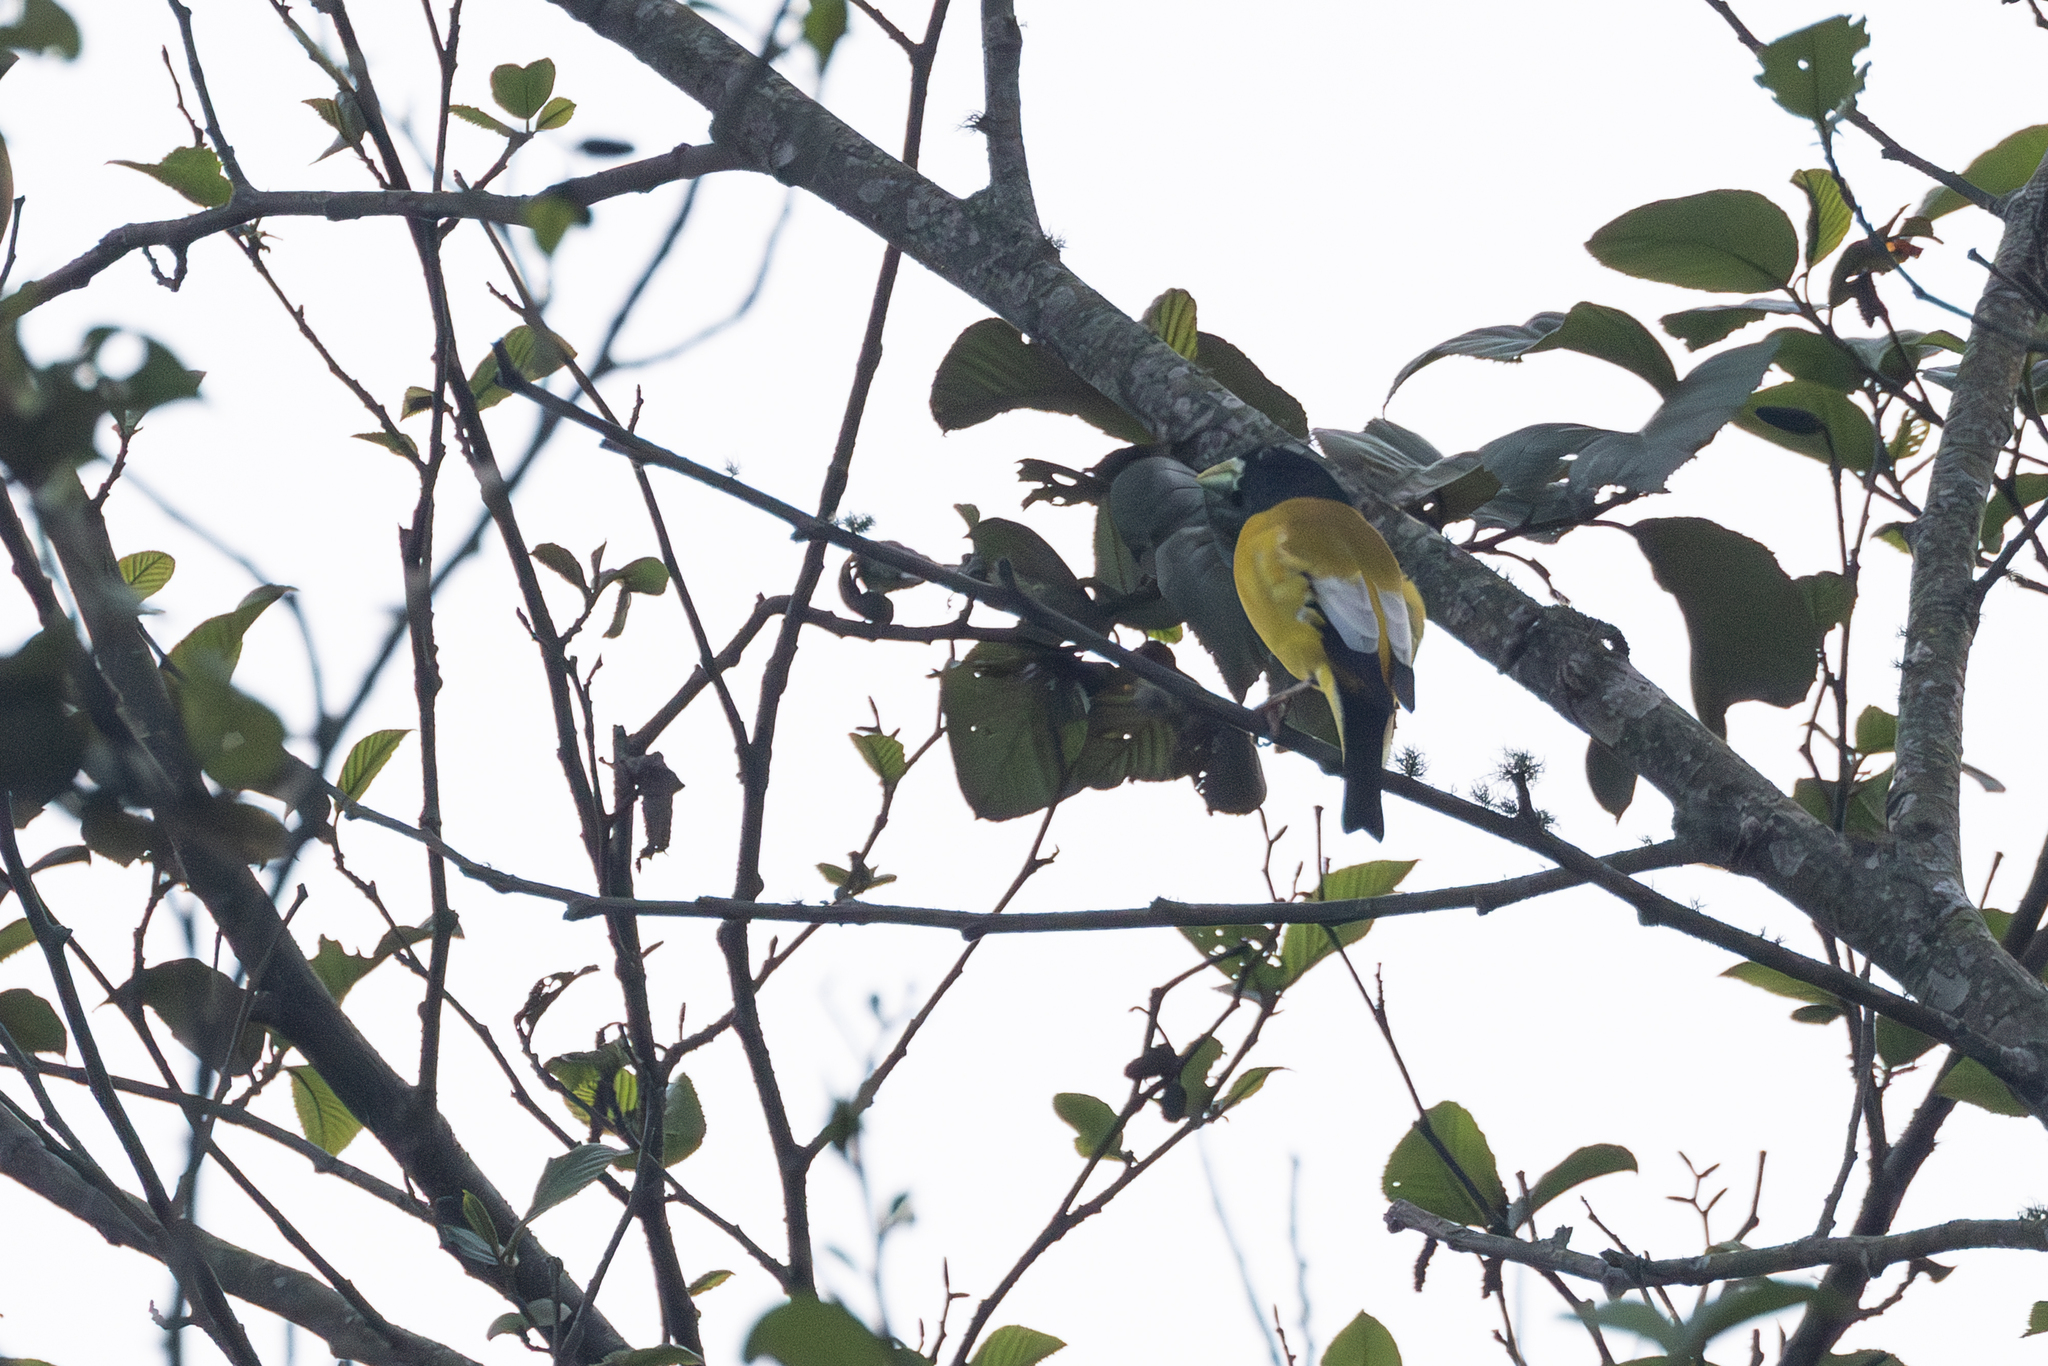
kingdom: Animalia
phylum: Chordata
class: Aves
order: Passeriformes
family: Fringillidae
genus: Hesperiphona
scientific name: Hesperiphona abeillei
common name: Hooded grosbeak
